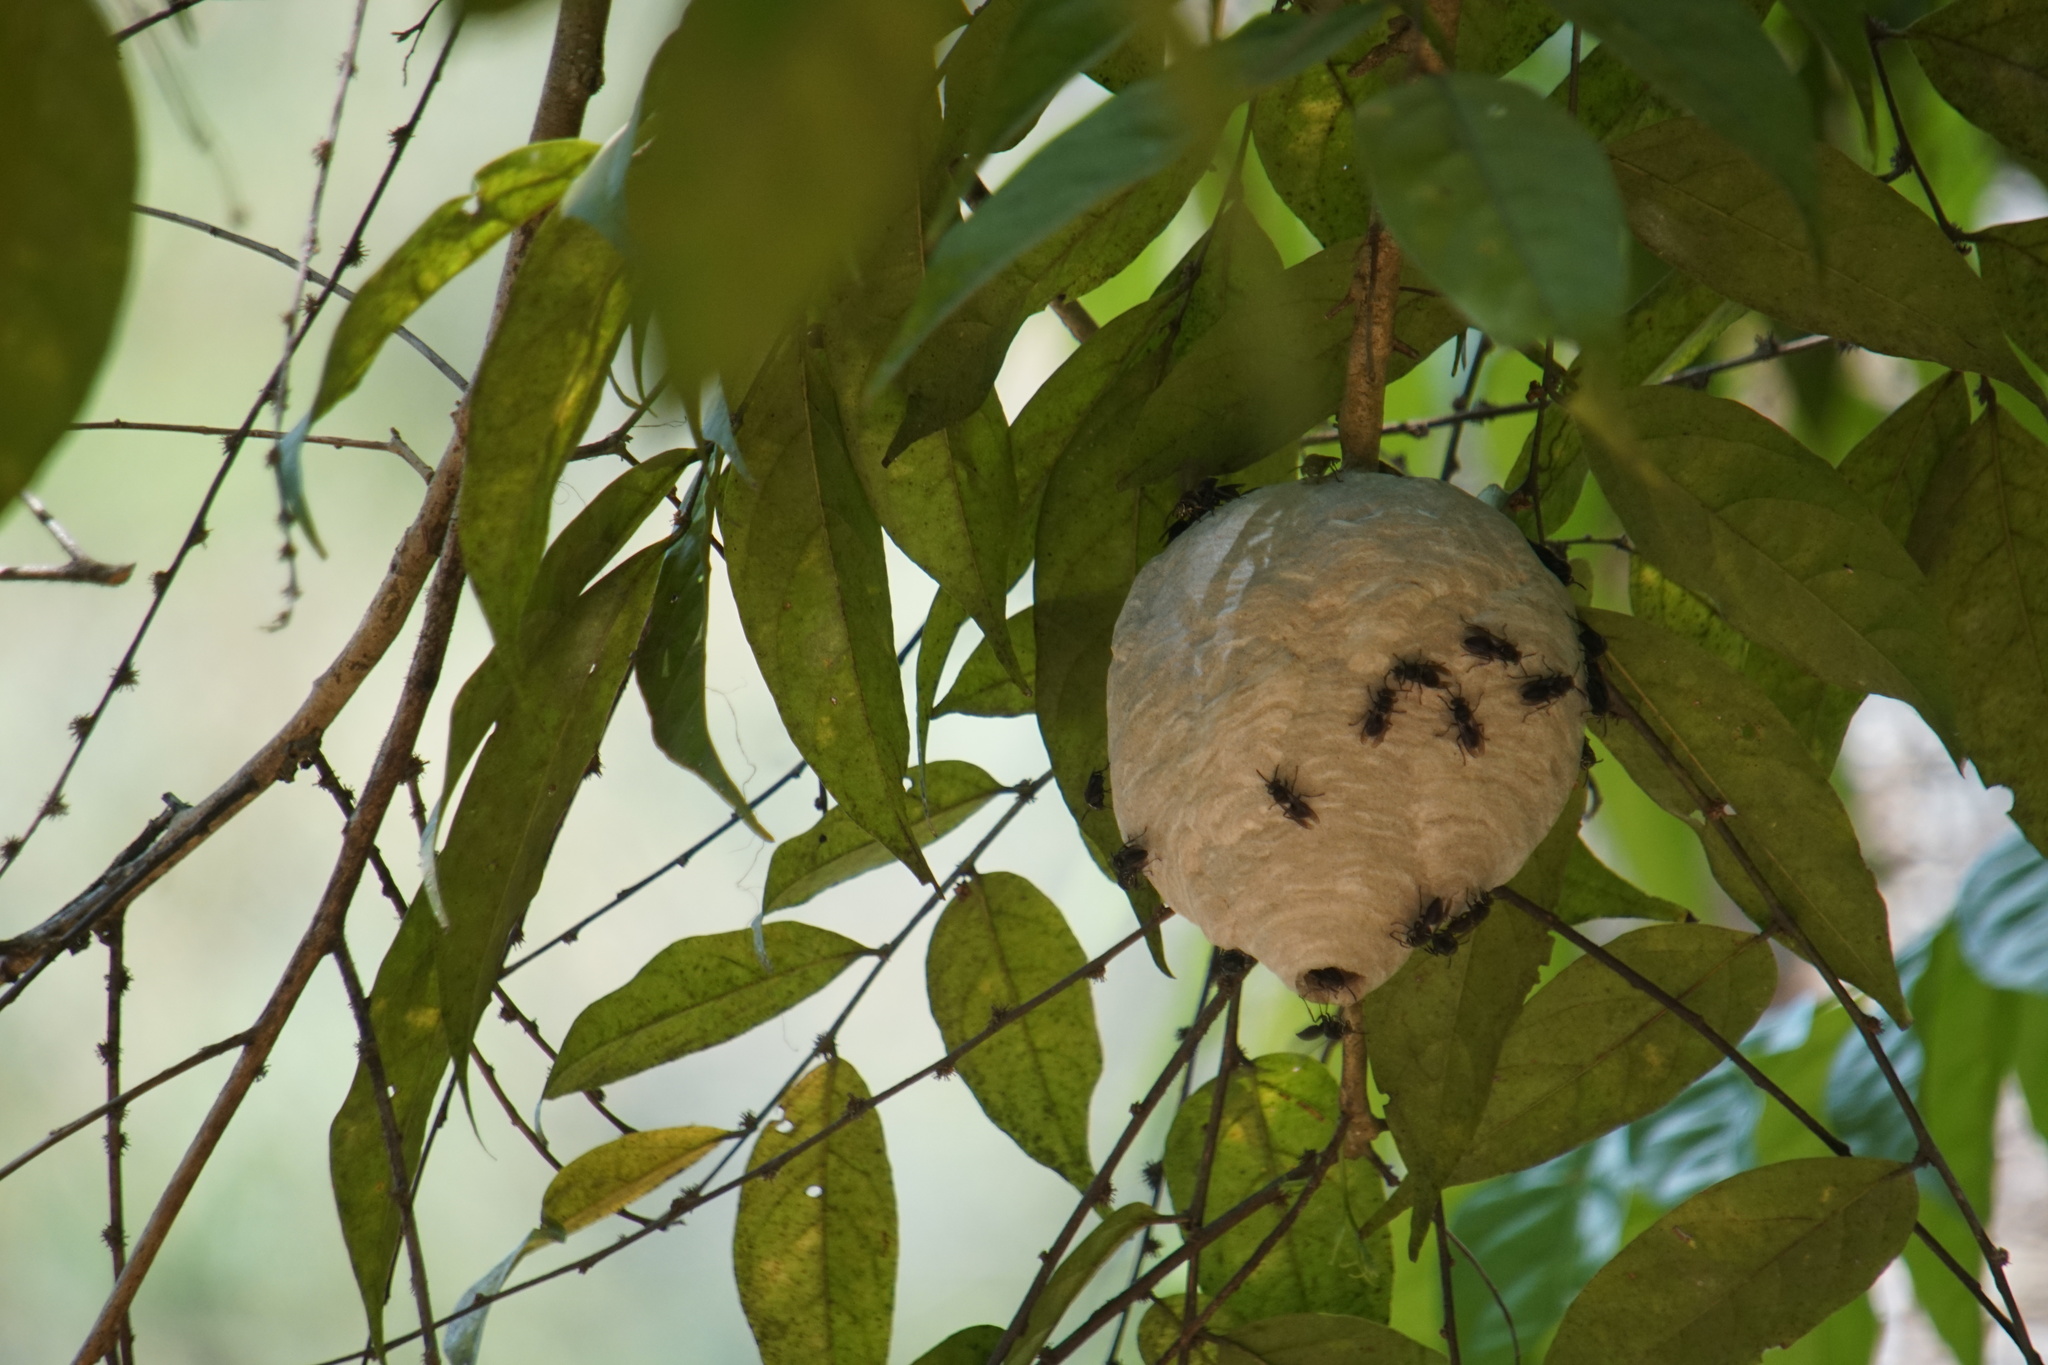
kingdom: Animalia
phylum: Arthropoda
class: Insecta
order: Hymenoptera
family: Vespidae
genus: Parachartergus
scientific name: Parachartergus compressus
